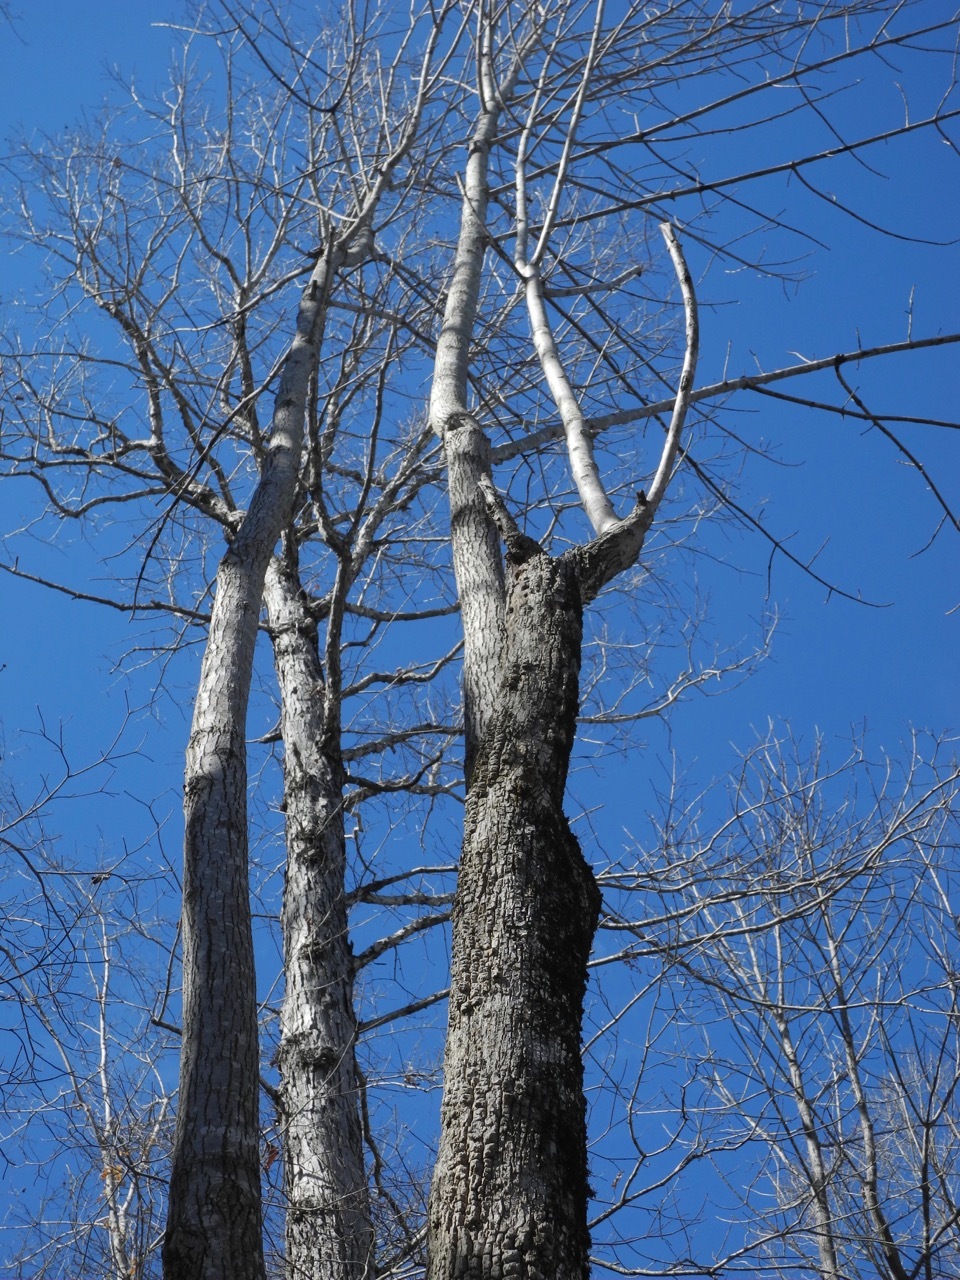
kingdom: Plantae
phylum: Tracheophyta
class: Magnoliopsida
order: Cornales
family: Nyssaceae
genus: Nyssa
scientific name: Nyssa sylvatica
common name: Black tupelo
